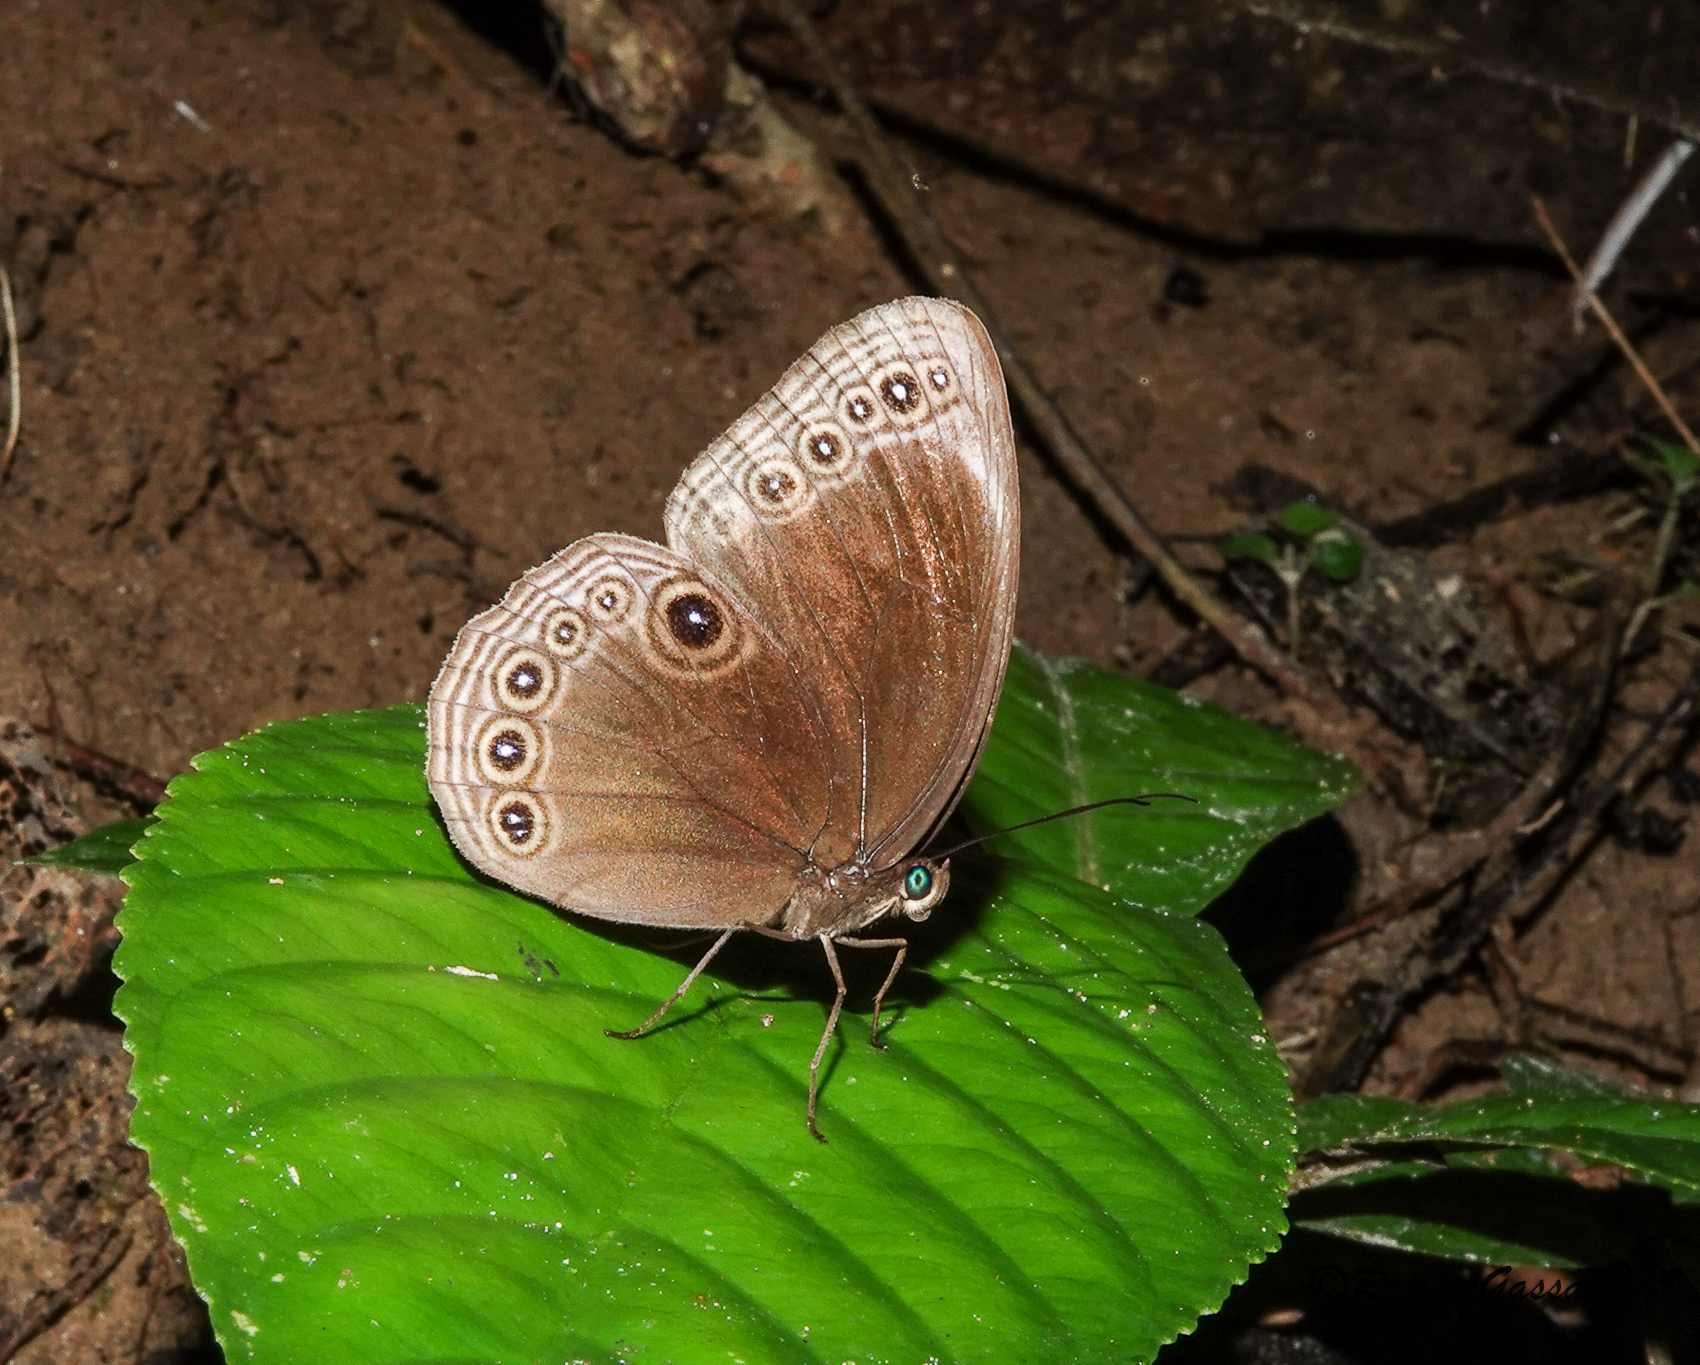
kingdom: Animalia
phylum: Arthropoda
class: Insecta
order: Lepidoptera
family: Nymphalidae
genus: Ethope
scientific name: Ethope himachala
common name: Dusky diadem
